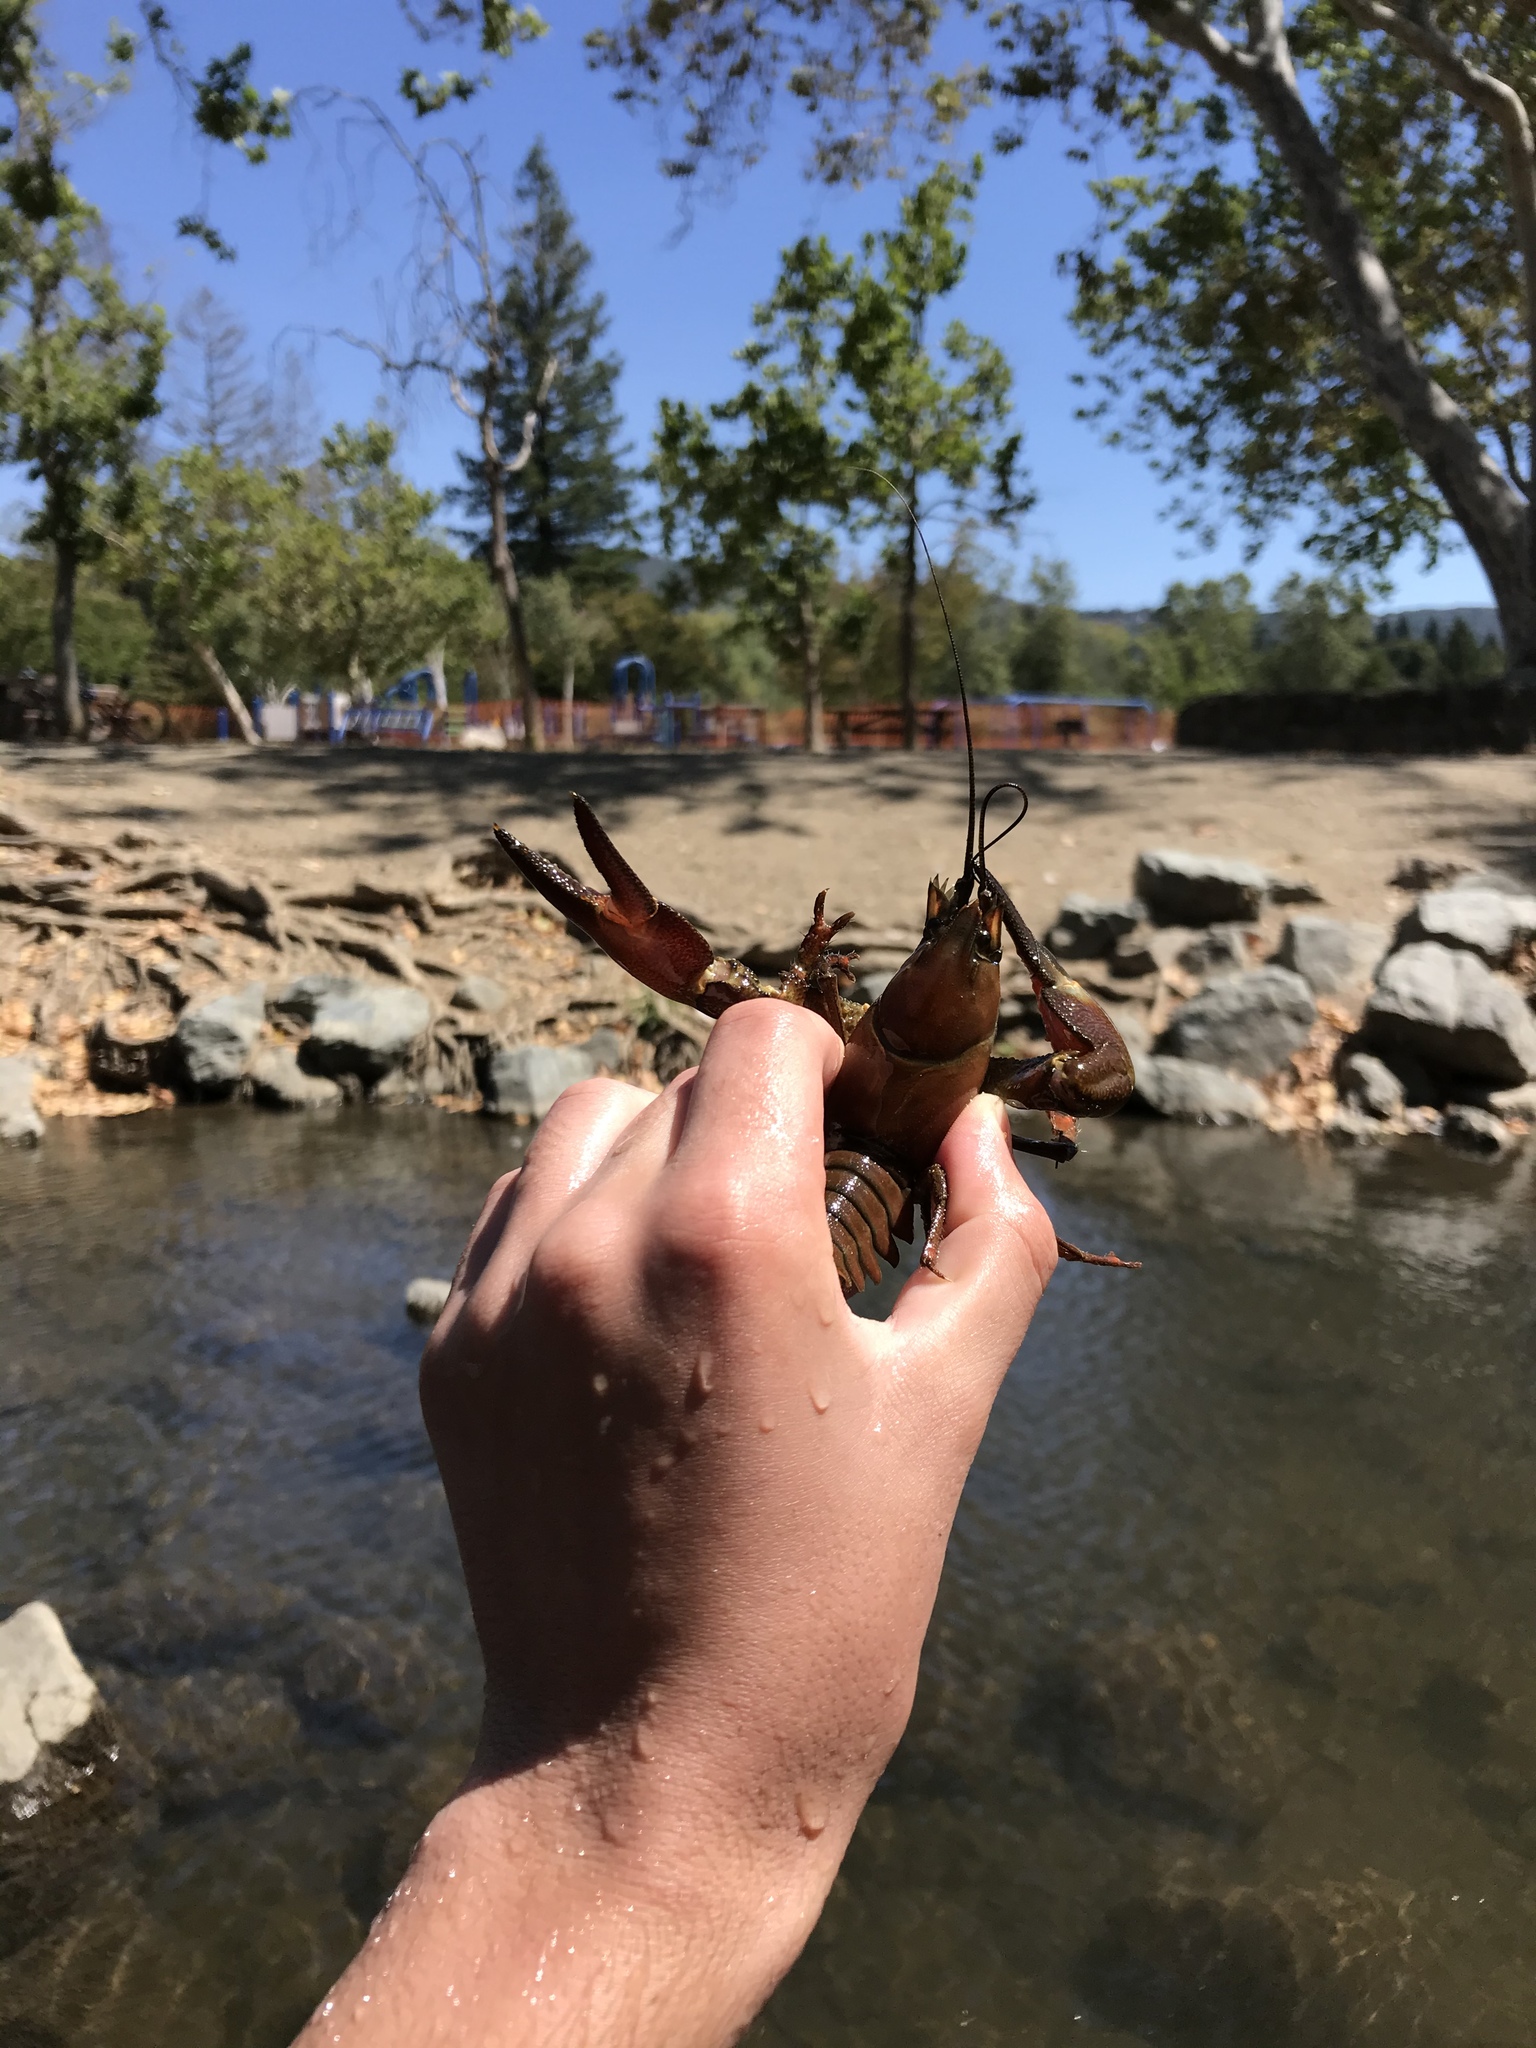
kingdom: Animalia
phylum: Arthropoda
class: Malacostraca
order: Decapoda
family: Astacidae
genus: Pacifastacus
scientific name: Pacifastacus leniusculus
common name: Signal crayfish
